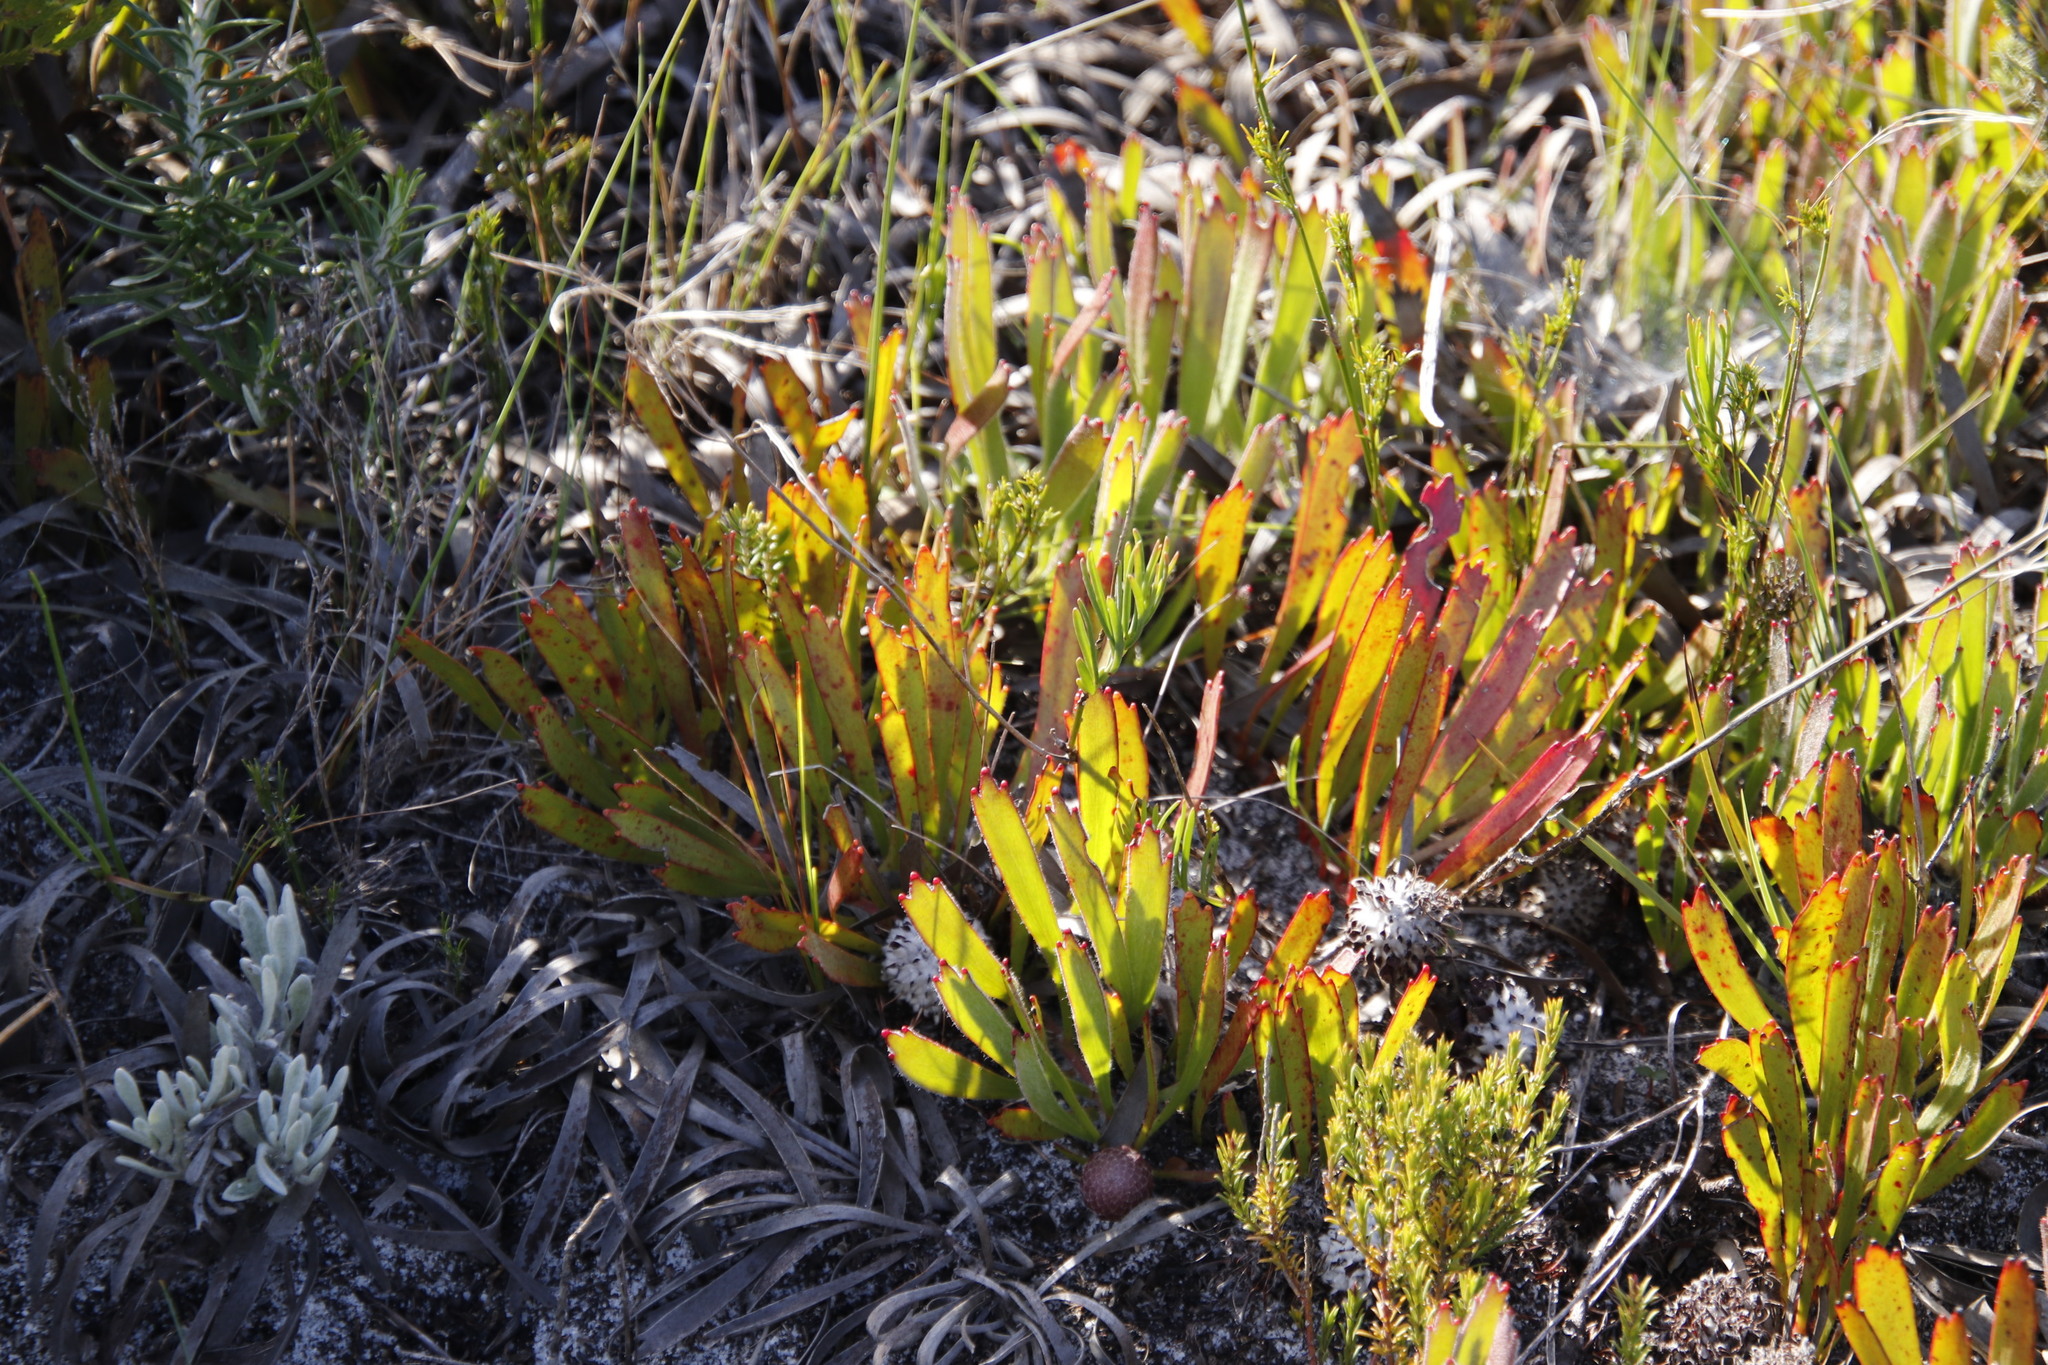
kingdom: Plantae
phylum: Tracheophyta
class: Magnoliopsida
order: Proteales
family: Proteaceae
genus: Leucospermum
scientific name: Leucospermum hypophyllocarpodendron
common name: Snakestem pincushion
